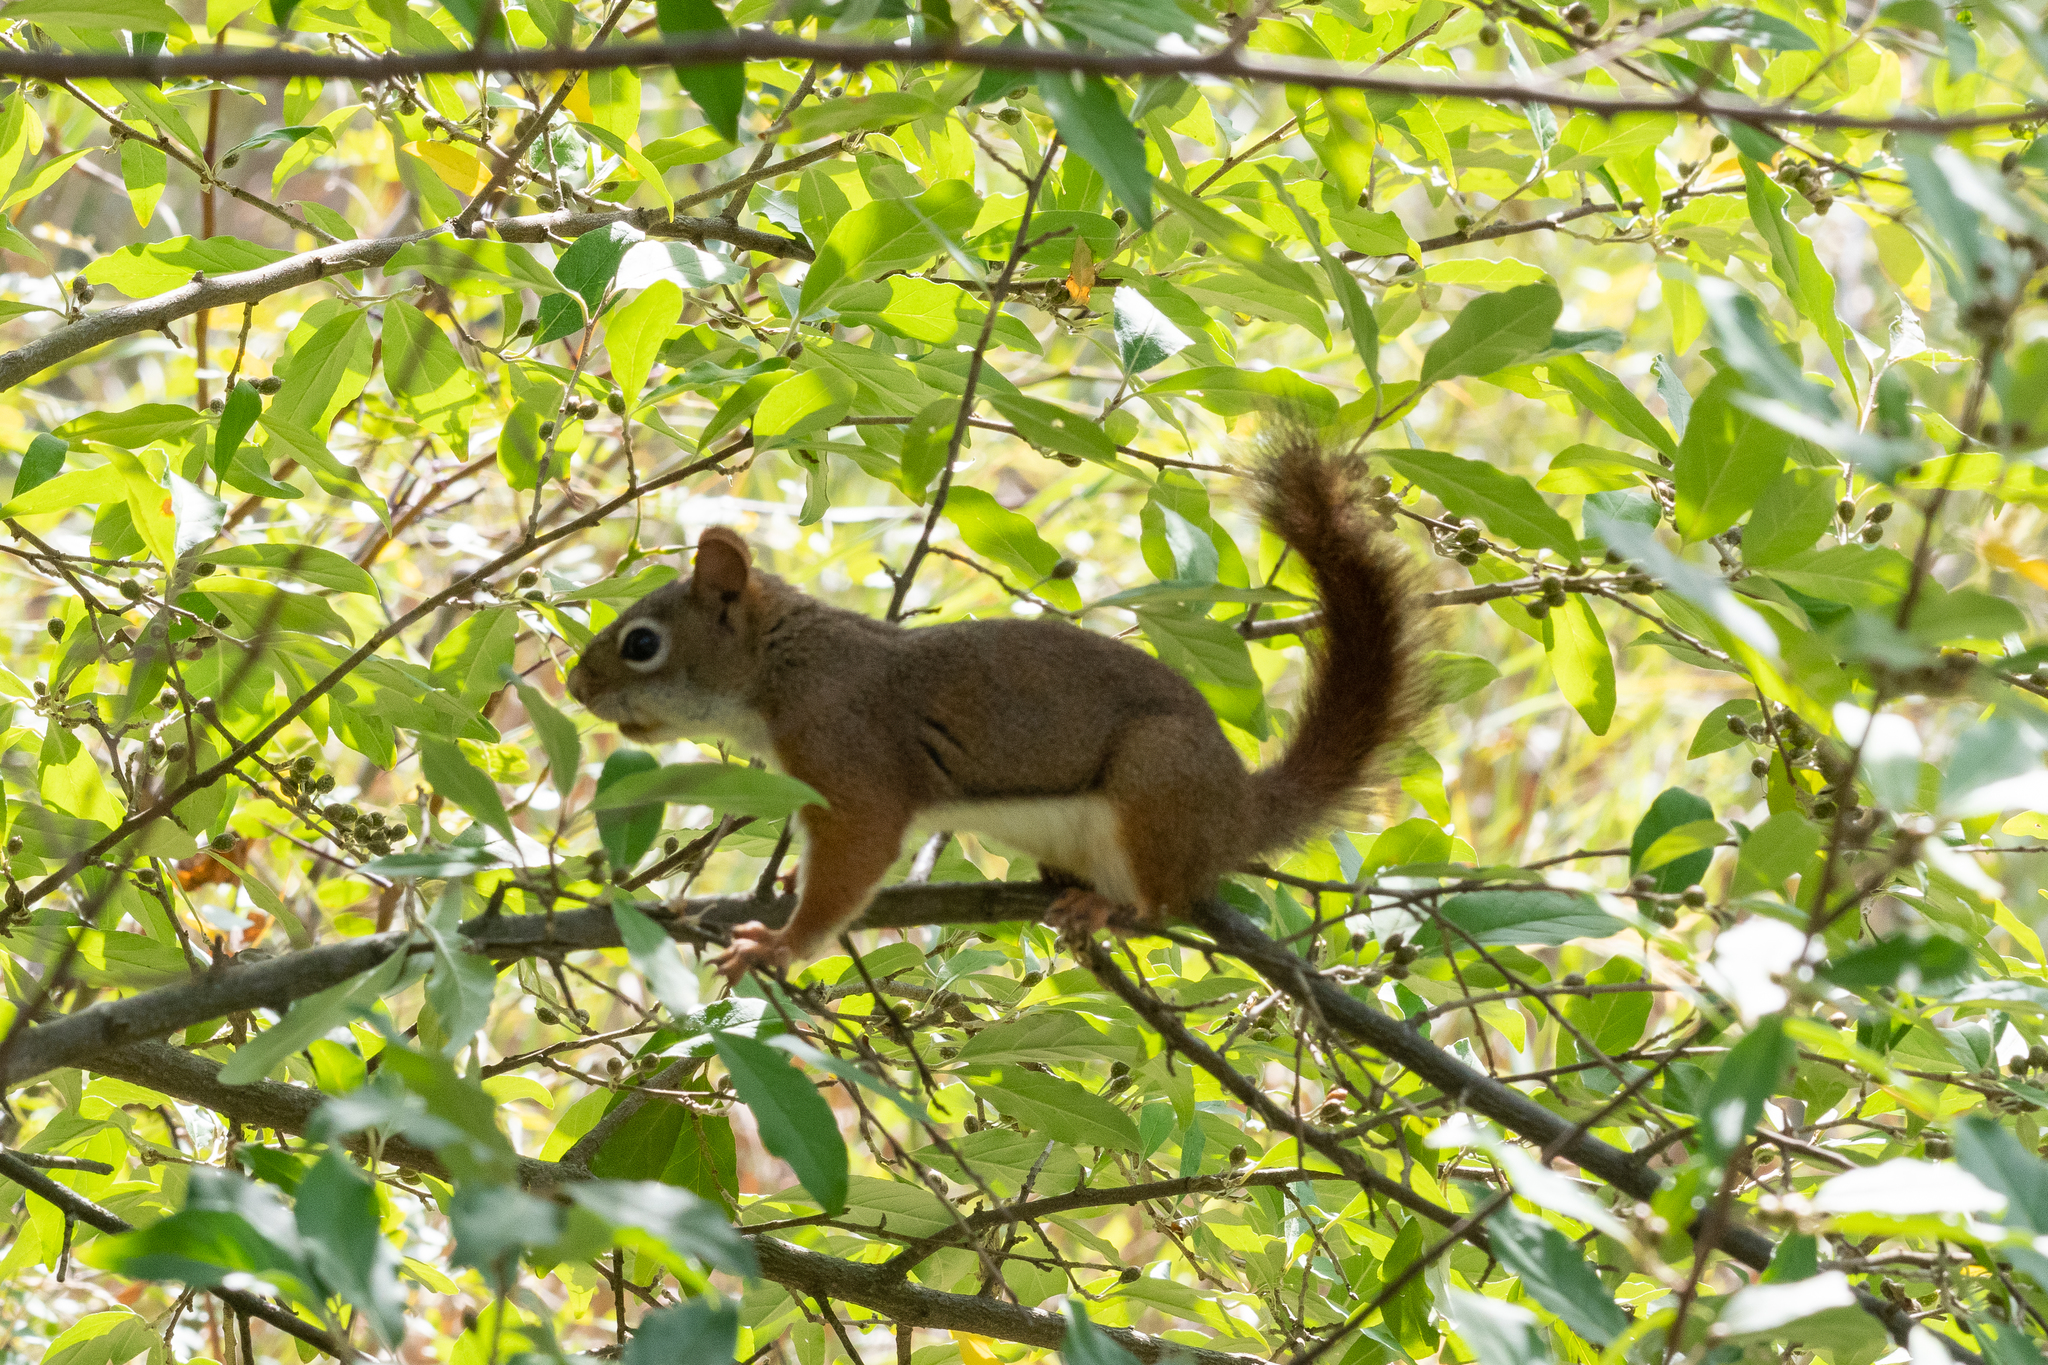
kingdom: Animalia
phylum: Chordata
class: Mammalia
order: Rodentia
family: Sciuridae
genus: Tamiasciurus
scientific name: Tamiasciurus hudsonicus
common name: Red squirrel
